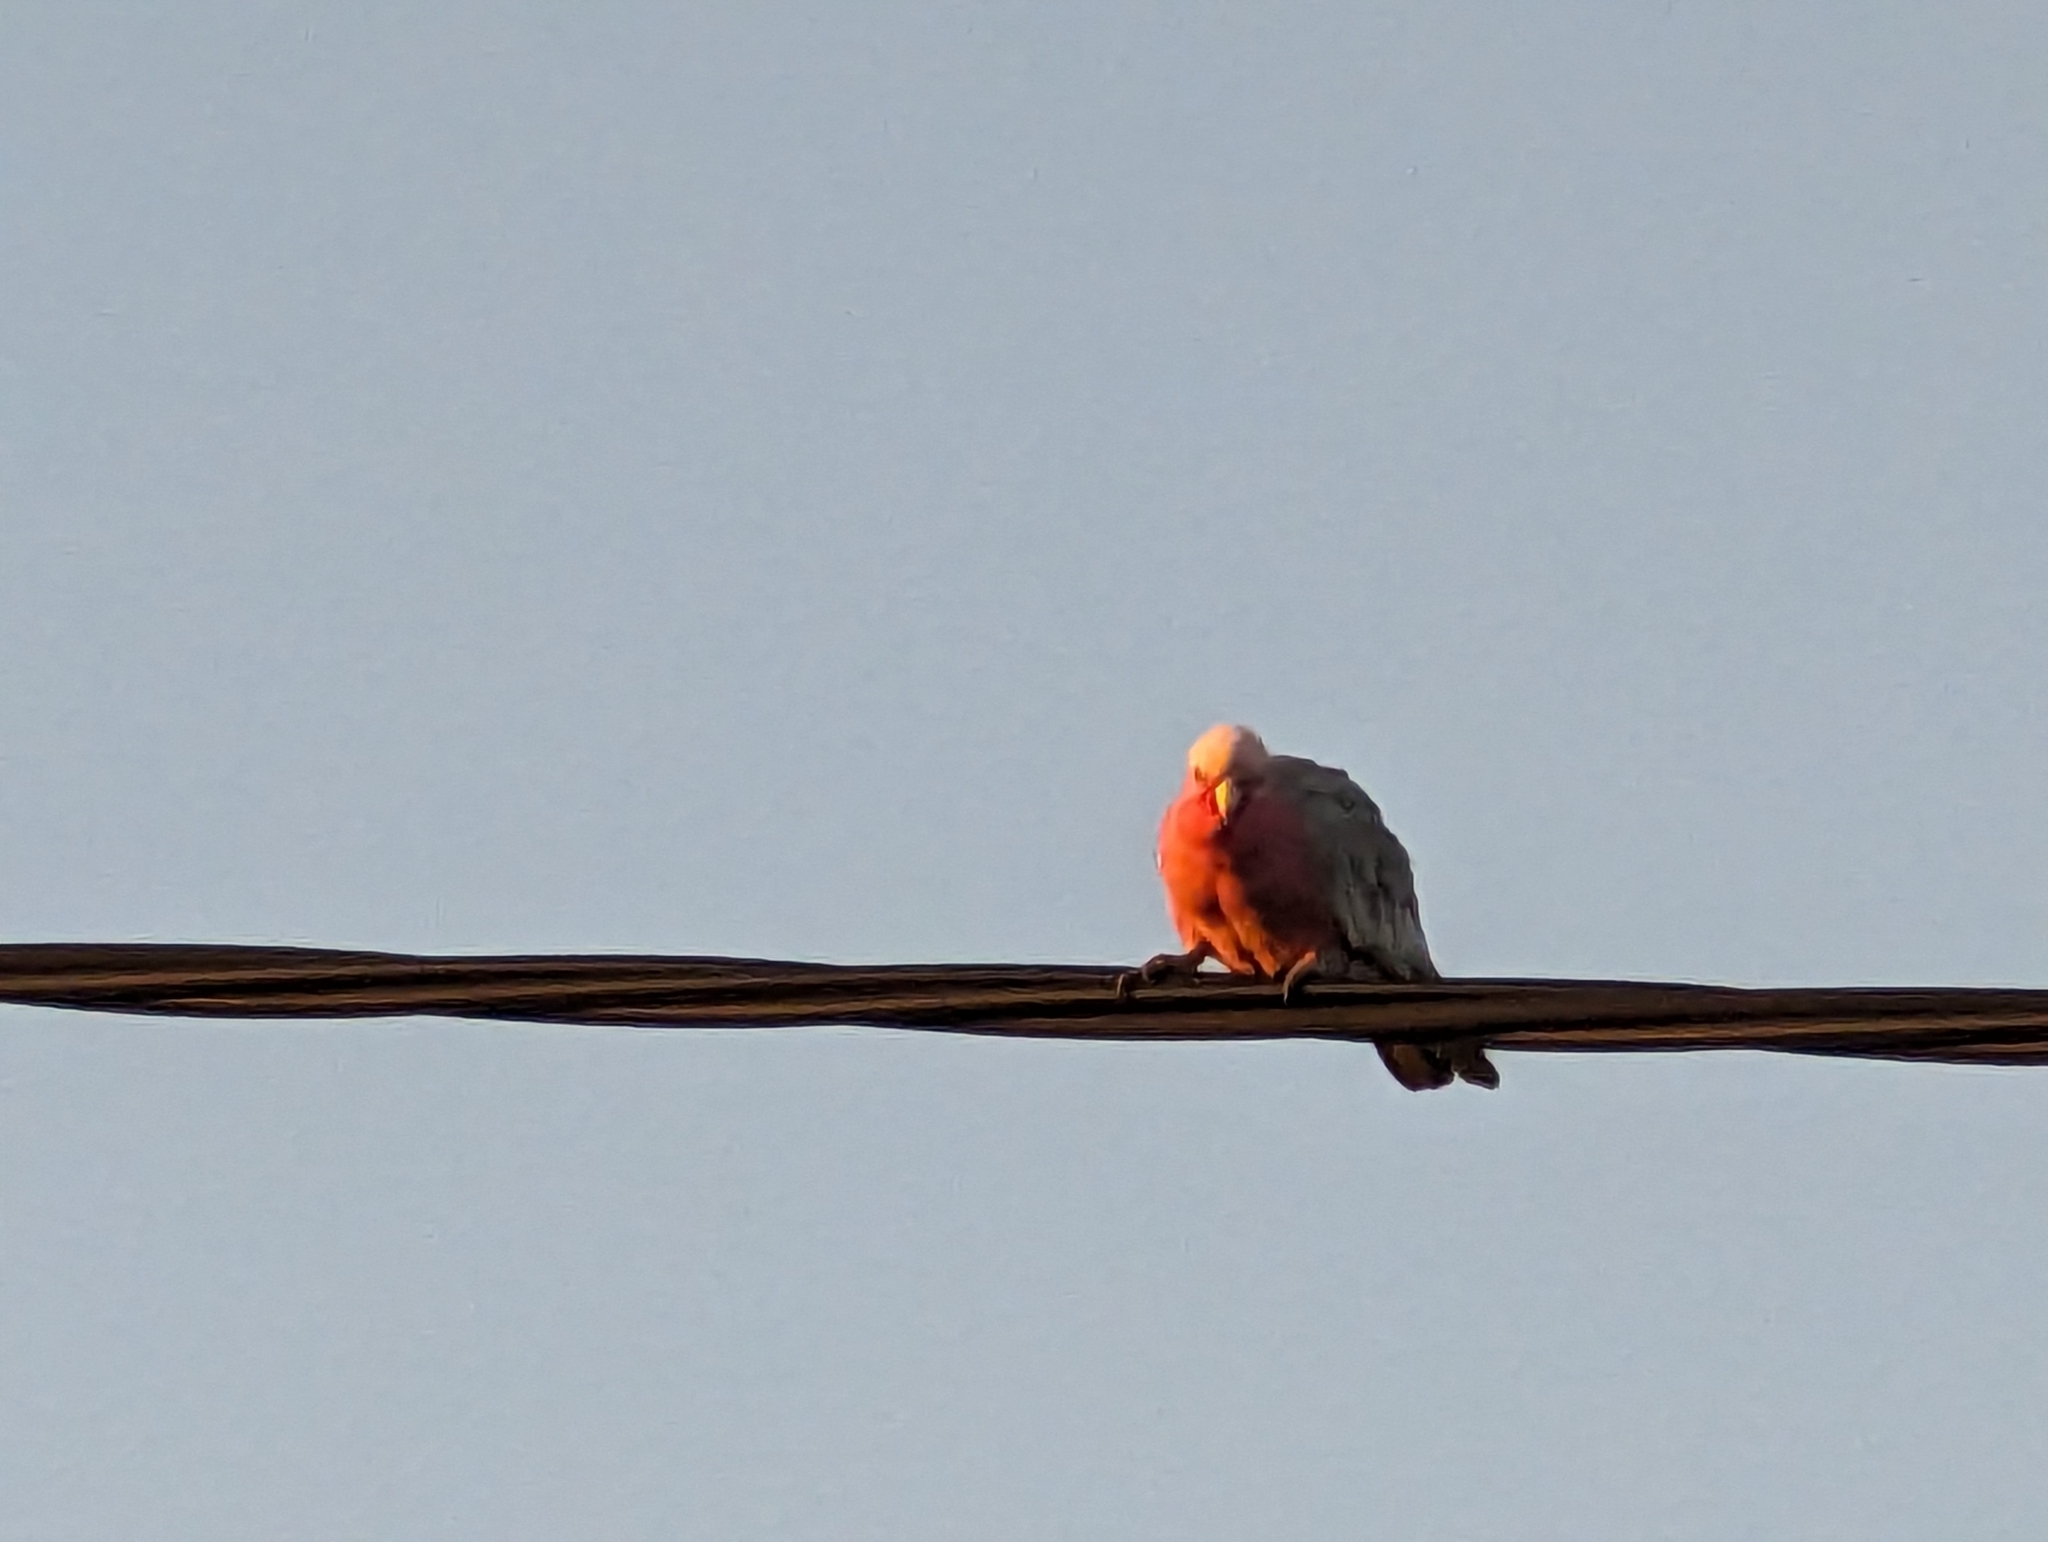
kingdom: Animalia
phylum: Chordata
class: Aves
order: Psittaciformes
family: Psittacidae
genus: Eolophus
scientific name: Eolophus roseicapilla
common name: Galah
